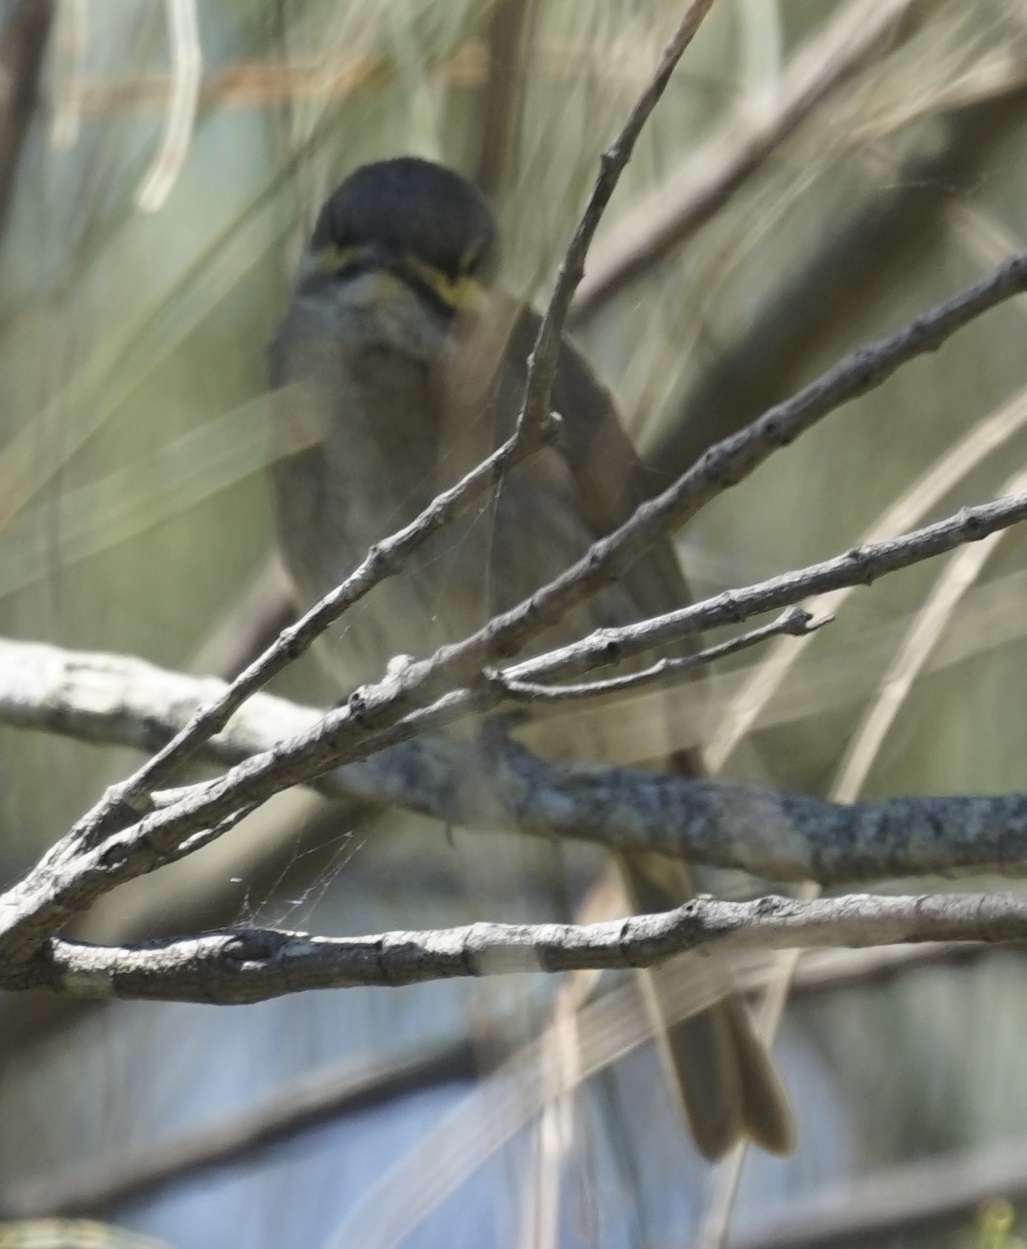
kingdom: Animalia
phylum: Chordata
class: Aves
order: Passeriformes
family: Meliphagidae
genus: Caligavis
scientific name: Caligavis chrysops
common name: Yellow-faced honeyeater
